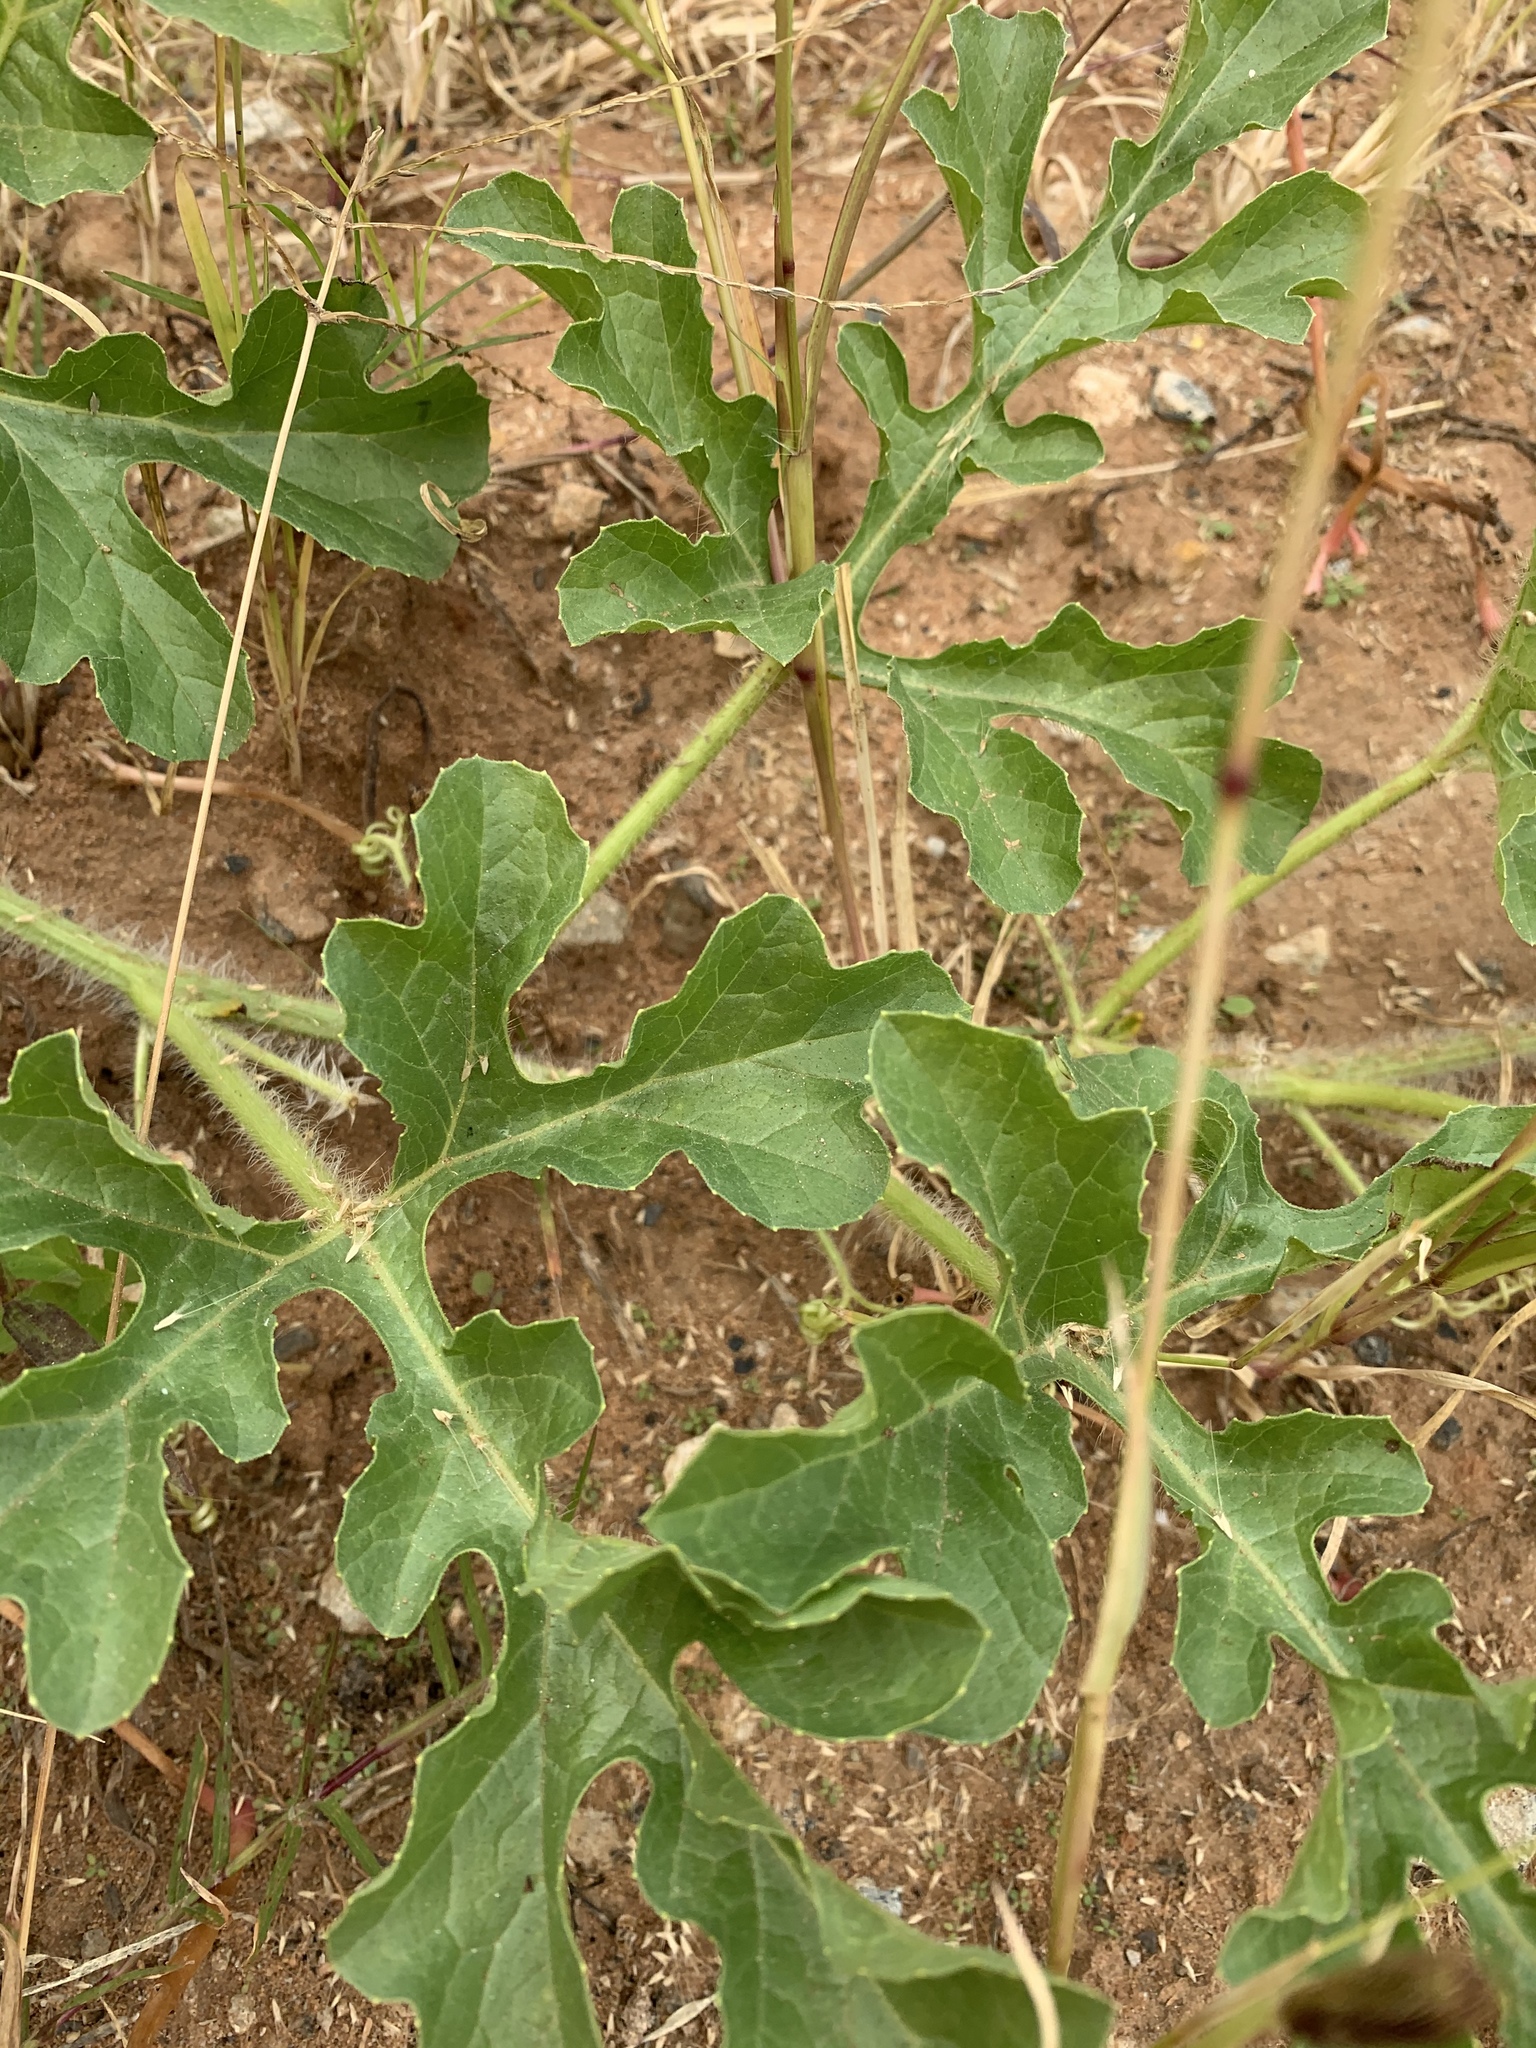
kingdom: Plantae
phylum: Tracheophyta
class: Magnoliopsida
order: Cucurbitales
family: Cucurbitaceae
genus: Citrullus
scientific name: Citrullus lanatus
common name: Watermelon
